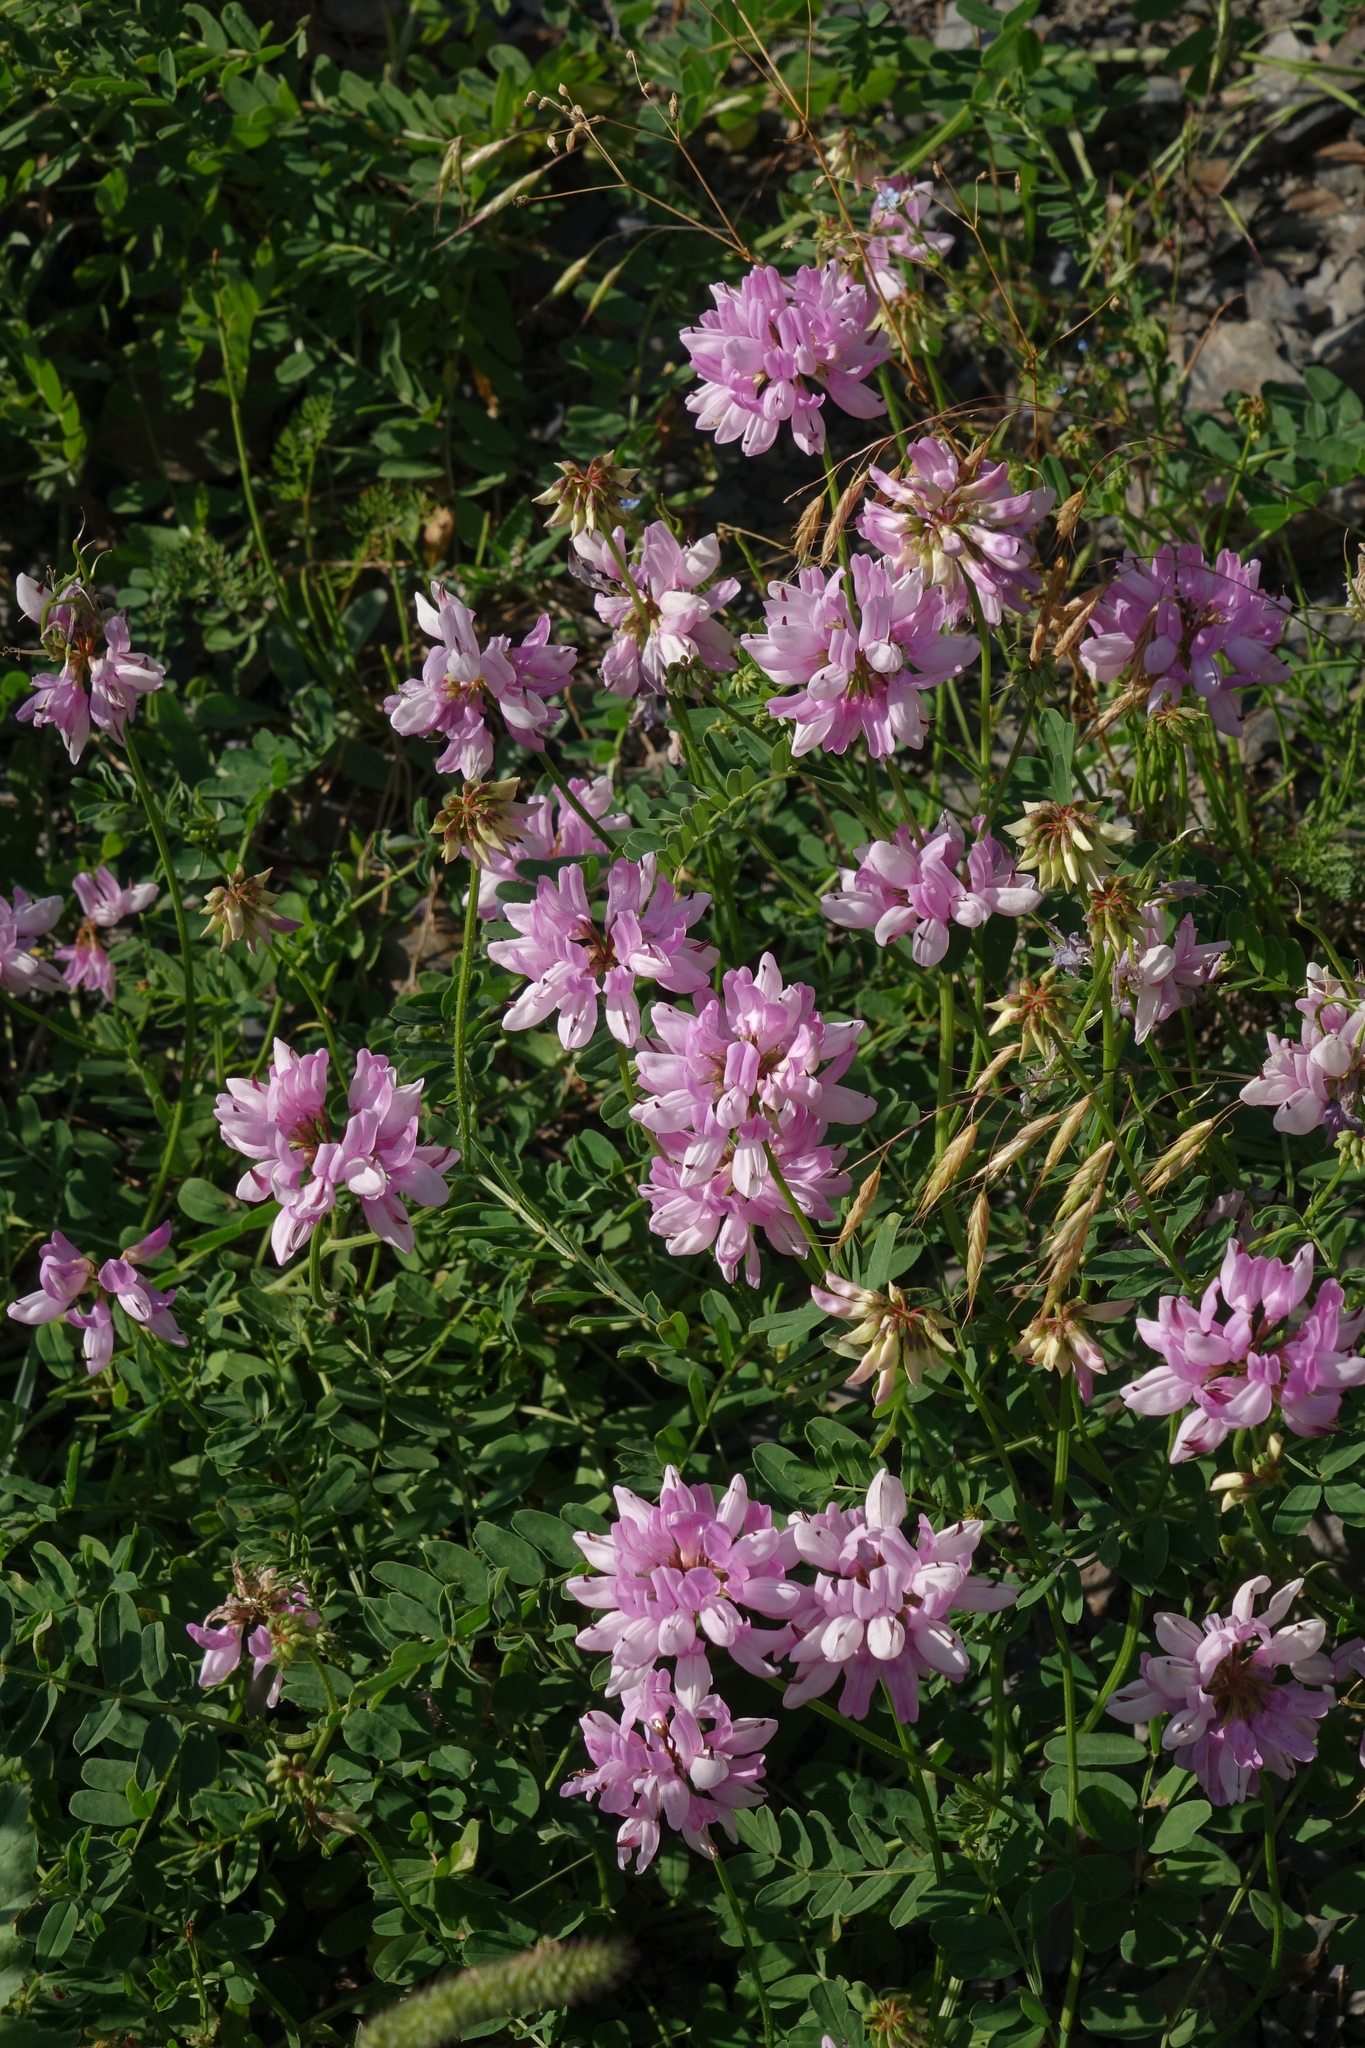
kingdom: Plantae
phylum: Tracheophyta
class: Magnoliopsida
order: Fabales
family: Fabaceae
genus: Coronilla
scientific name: Coronilla varia
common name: Crownvetch
